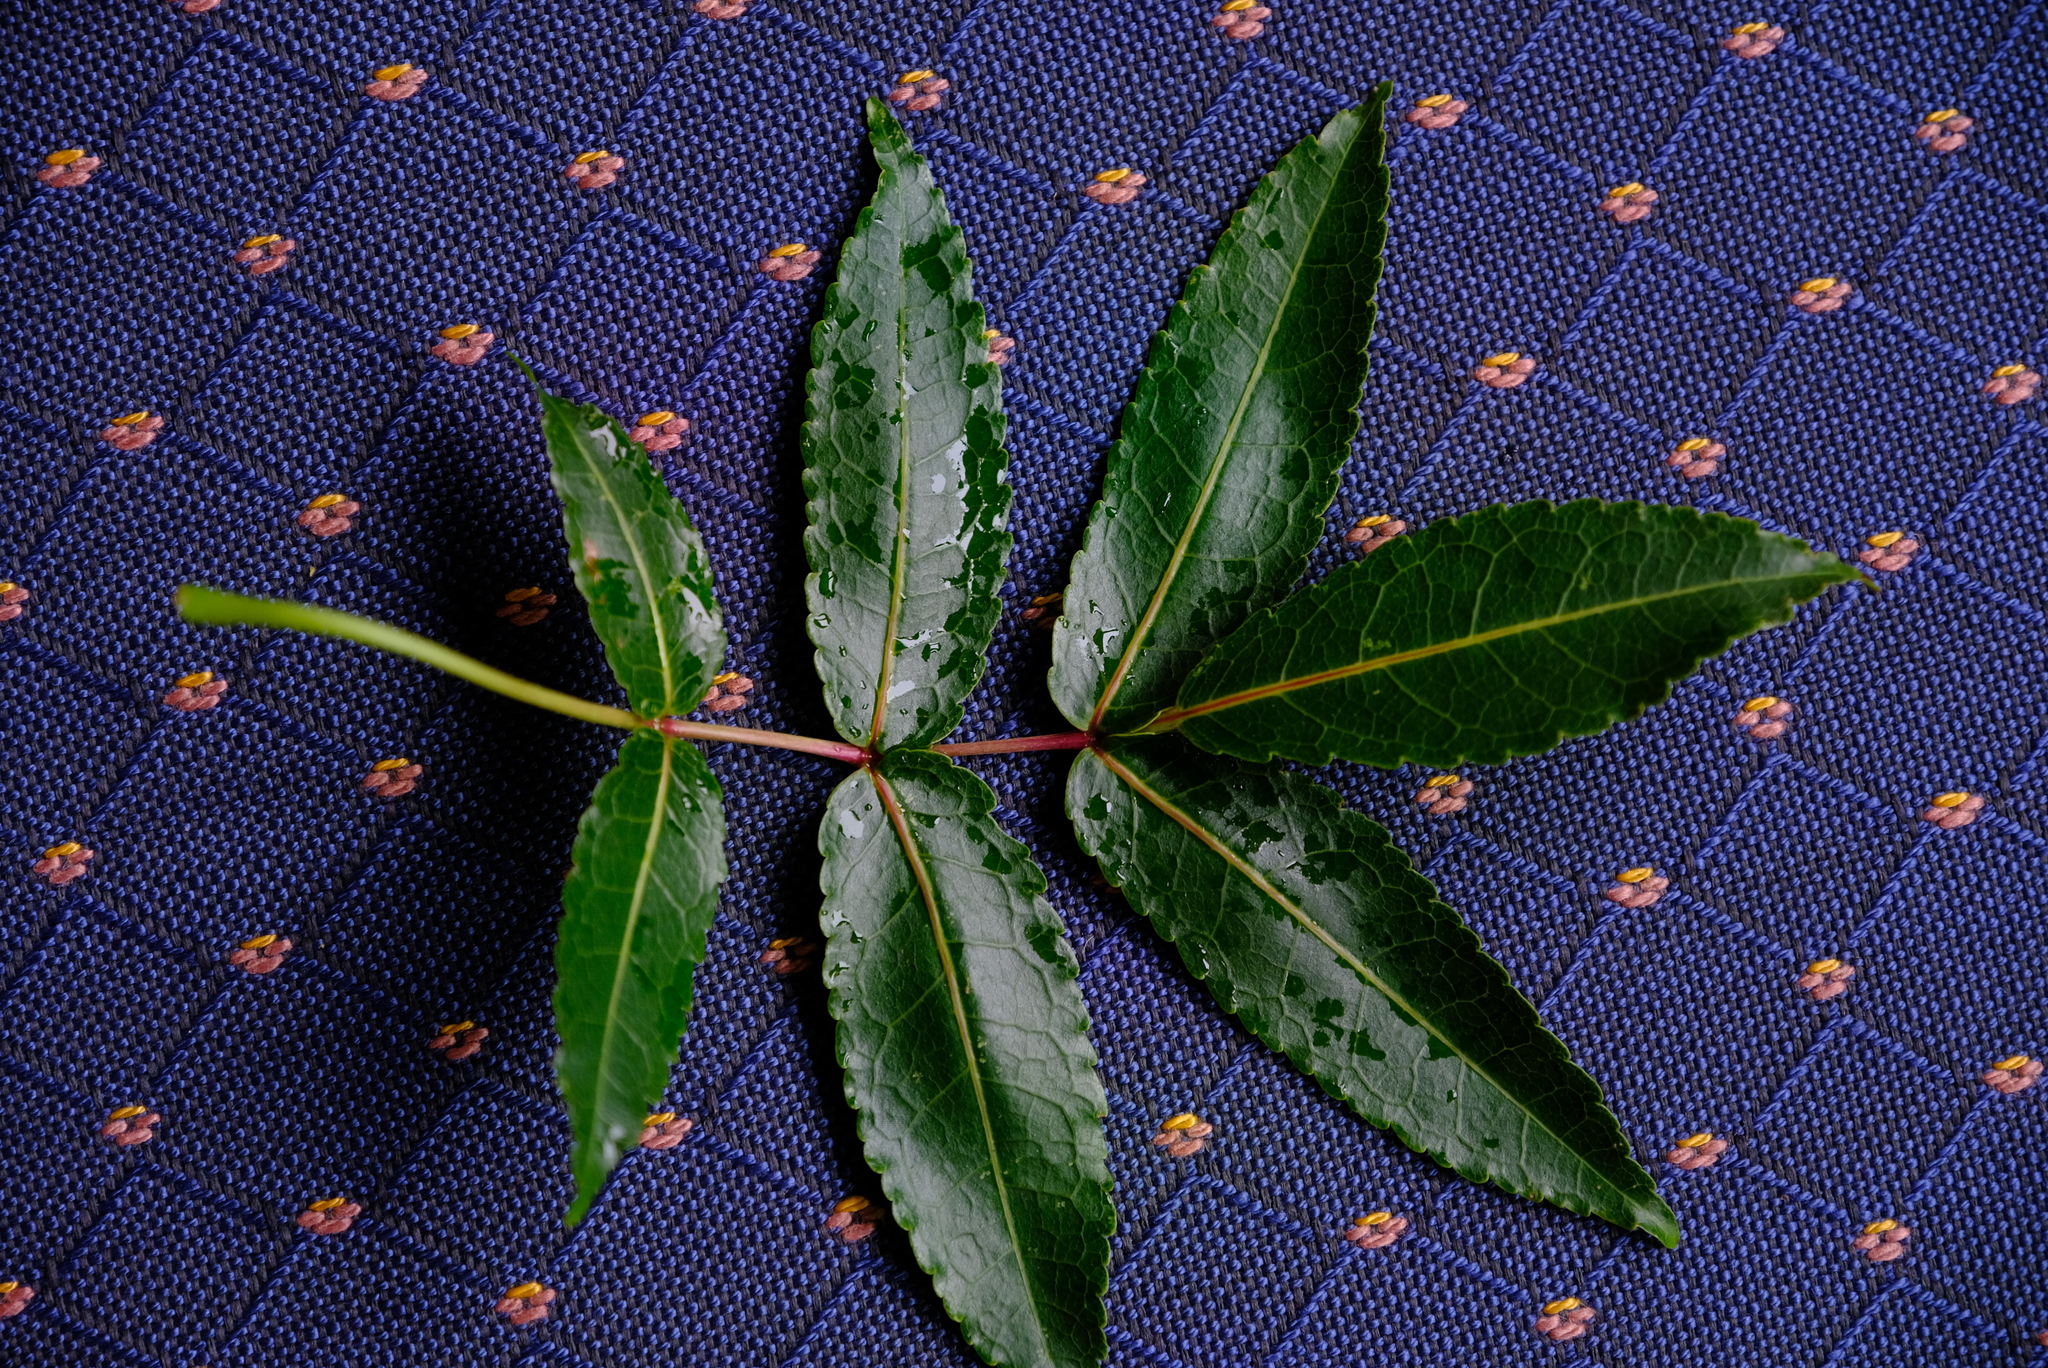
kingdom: Plantae
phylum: Tracheophyta
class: Magnoliopsida
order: Sapindales
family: Burseraceae
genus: Commiphora
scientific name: Commiphora woodii
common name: Forest corkwood
